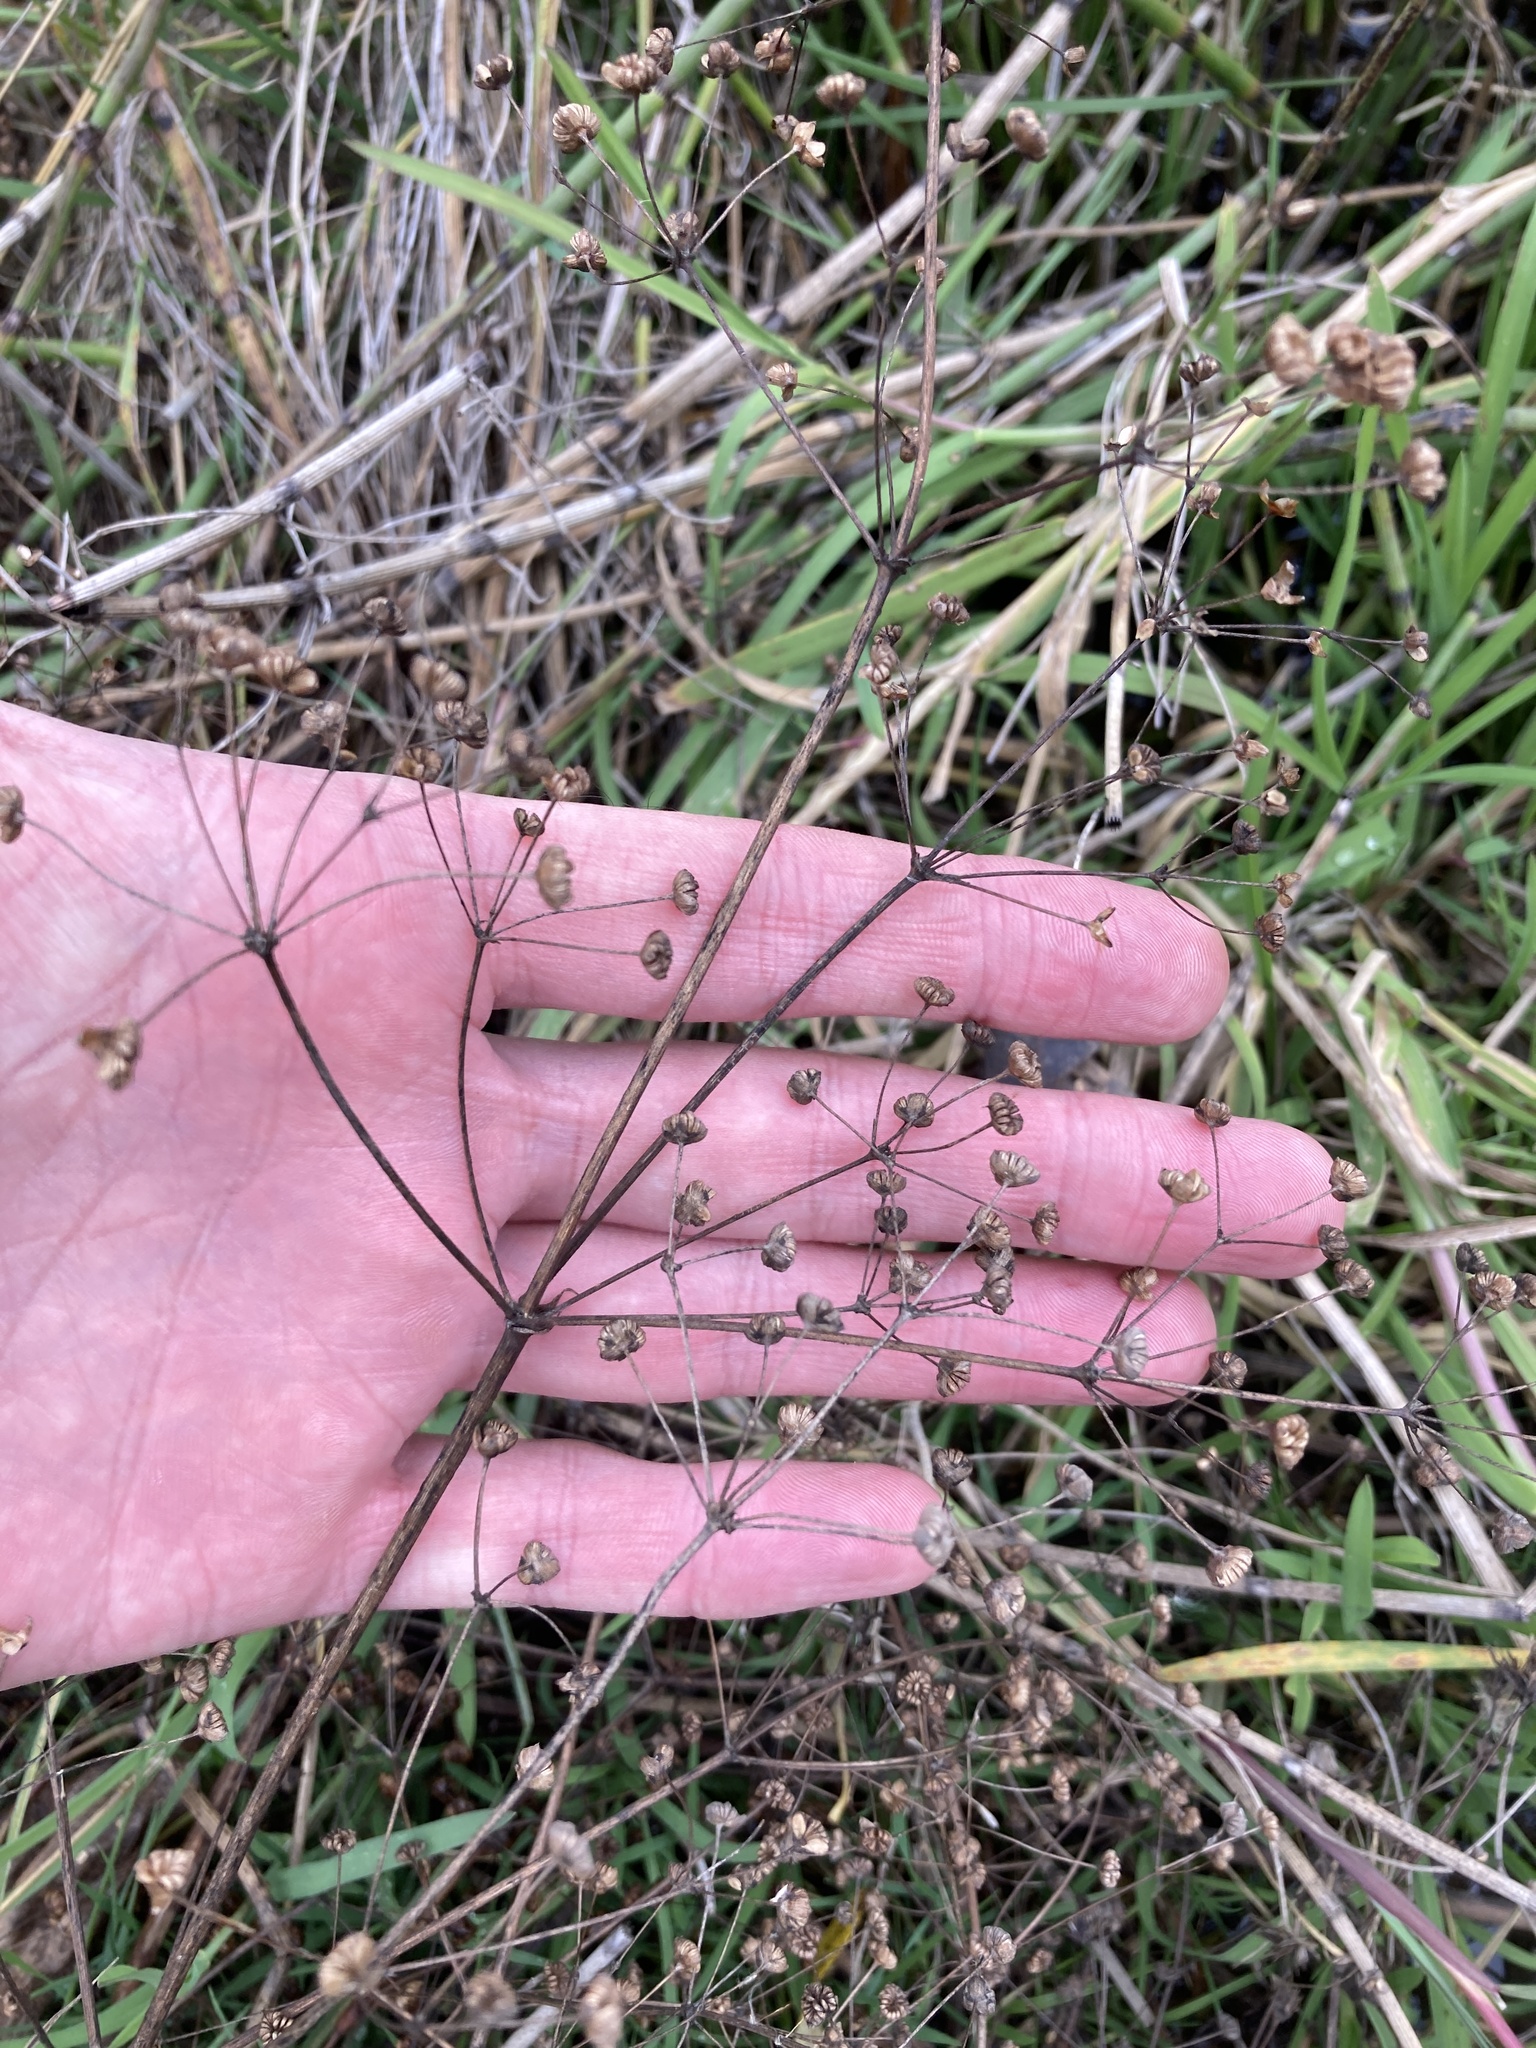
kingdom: Plantae
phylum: Tracheophyta
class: Liliopsida
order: Alismatales
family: Alismataceae
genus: Alisma
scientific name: Alisma plantago-aquatica
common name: Water-plantain
